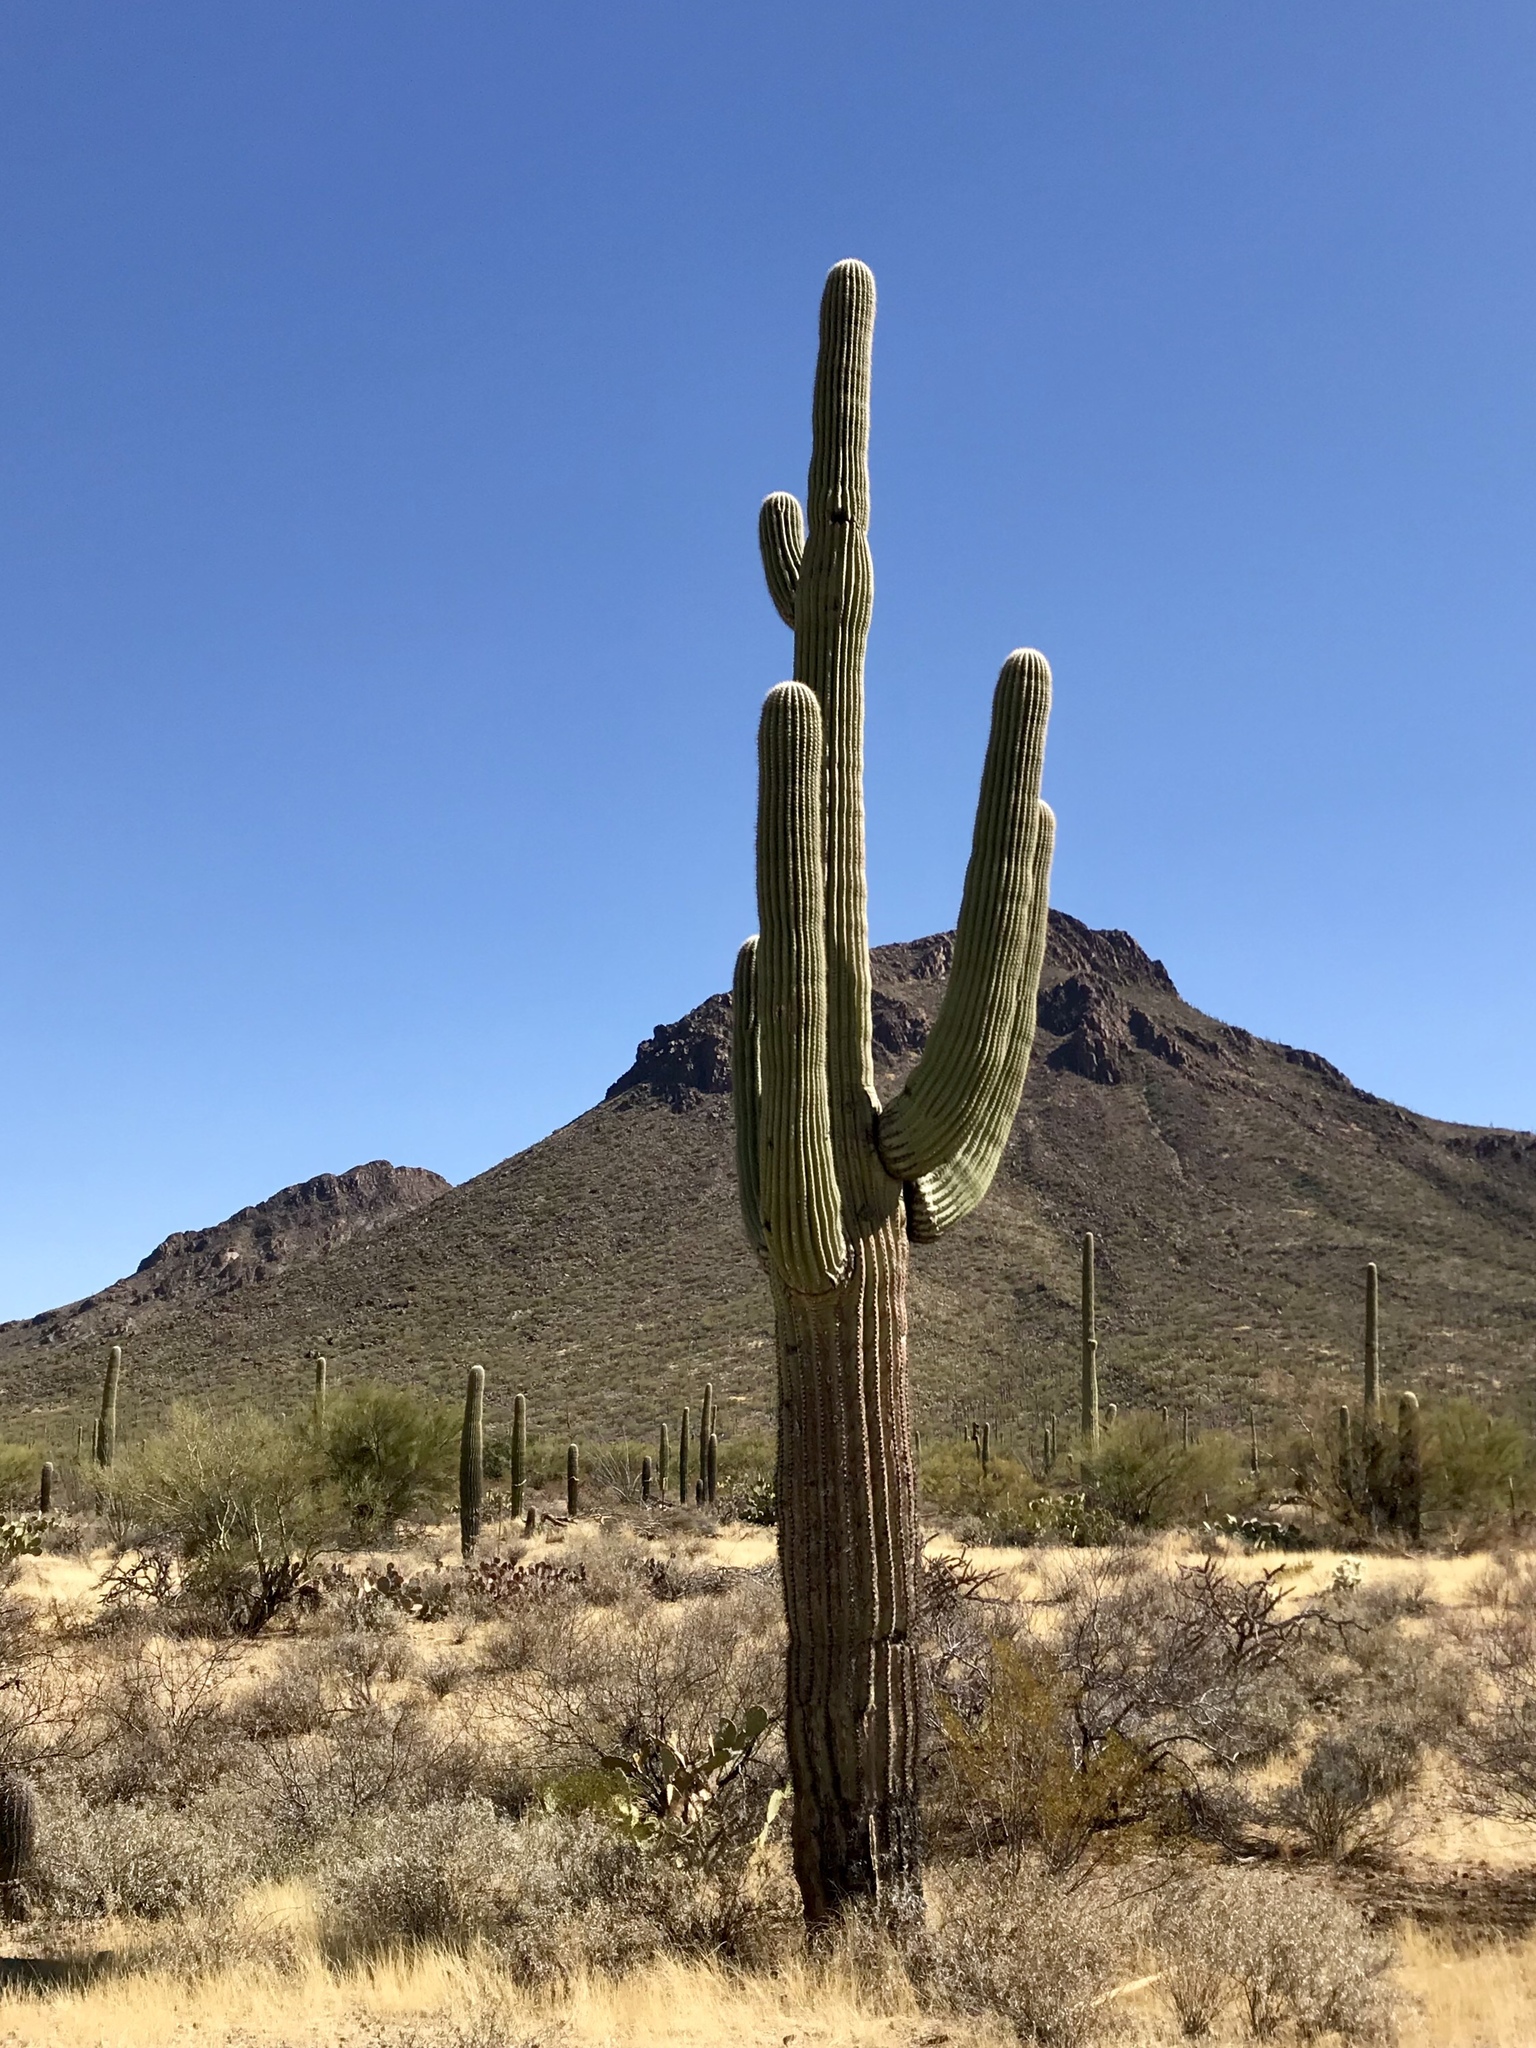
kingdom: Plantae
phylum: Tracheophyta
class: Magnoliopsida
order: Caryophyllales
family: Cactaceae
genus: Carnegiea
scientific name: Carnegiea gigantea
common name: Saguaro
